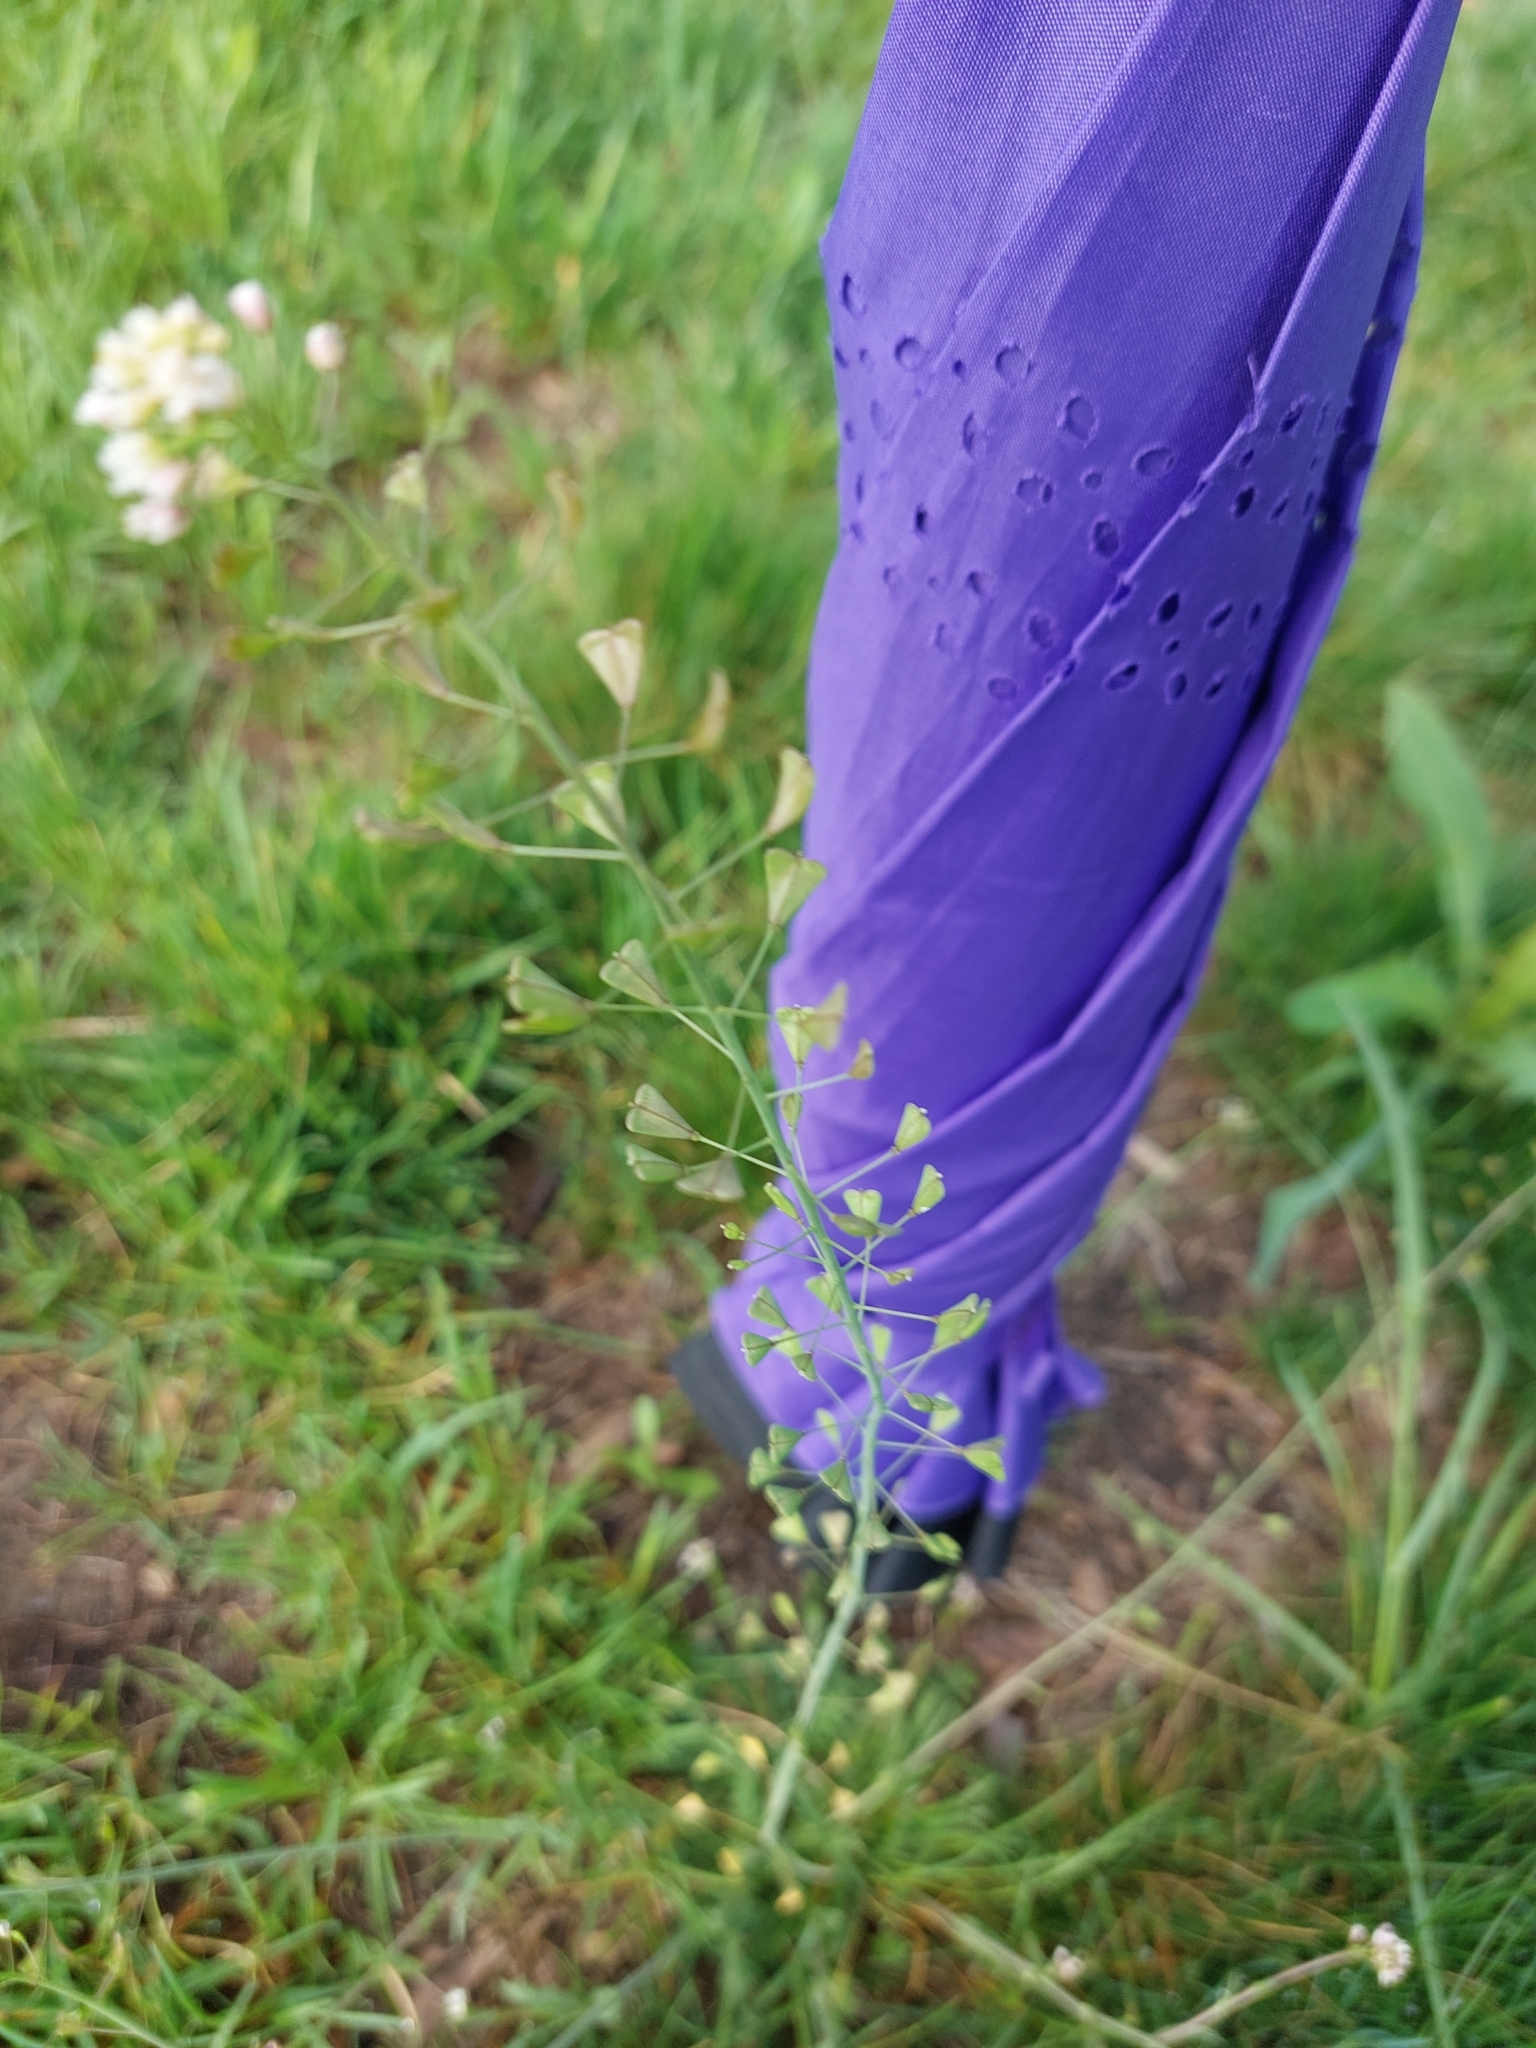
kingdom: Plantae
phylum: Tracheophyta
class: Magnoliopsida
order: Brassicales
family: Brassicaceae
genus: Capsella
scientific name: Capsella bursa-pastoris
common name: Shepherd's purse
